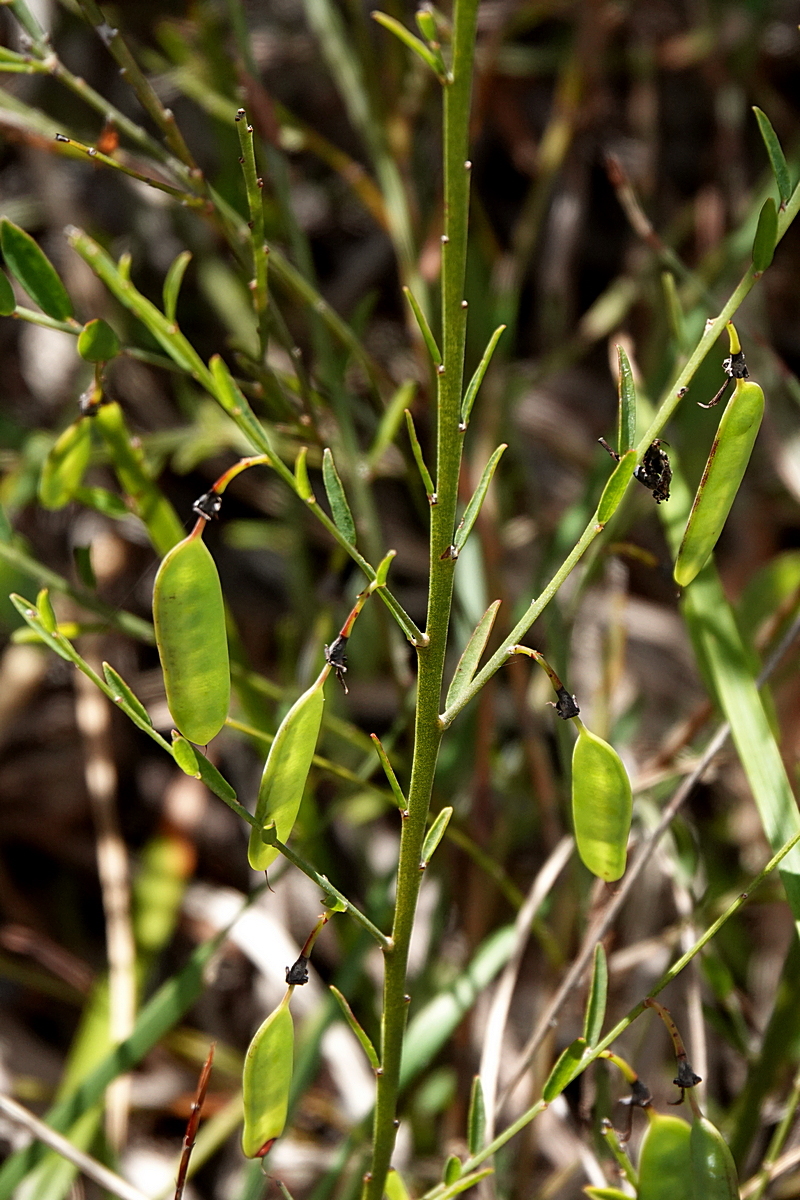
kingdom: Plantae
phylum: Tracheophyta
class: Magnoliopsida
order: Fabales
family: Fabaceae
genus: Bossiaea
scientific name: Bossiaea heterophylla
